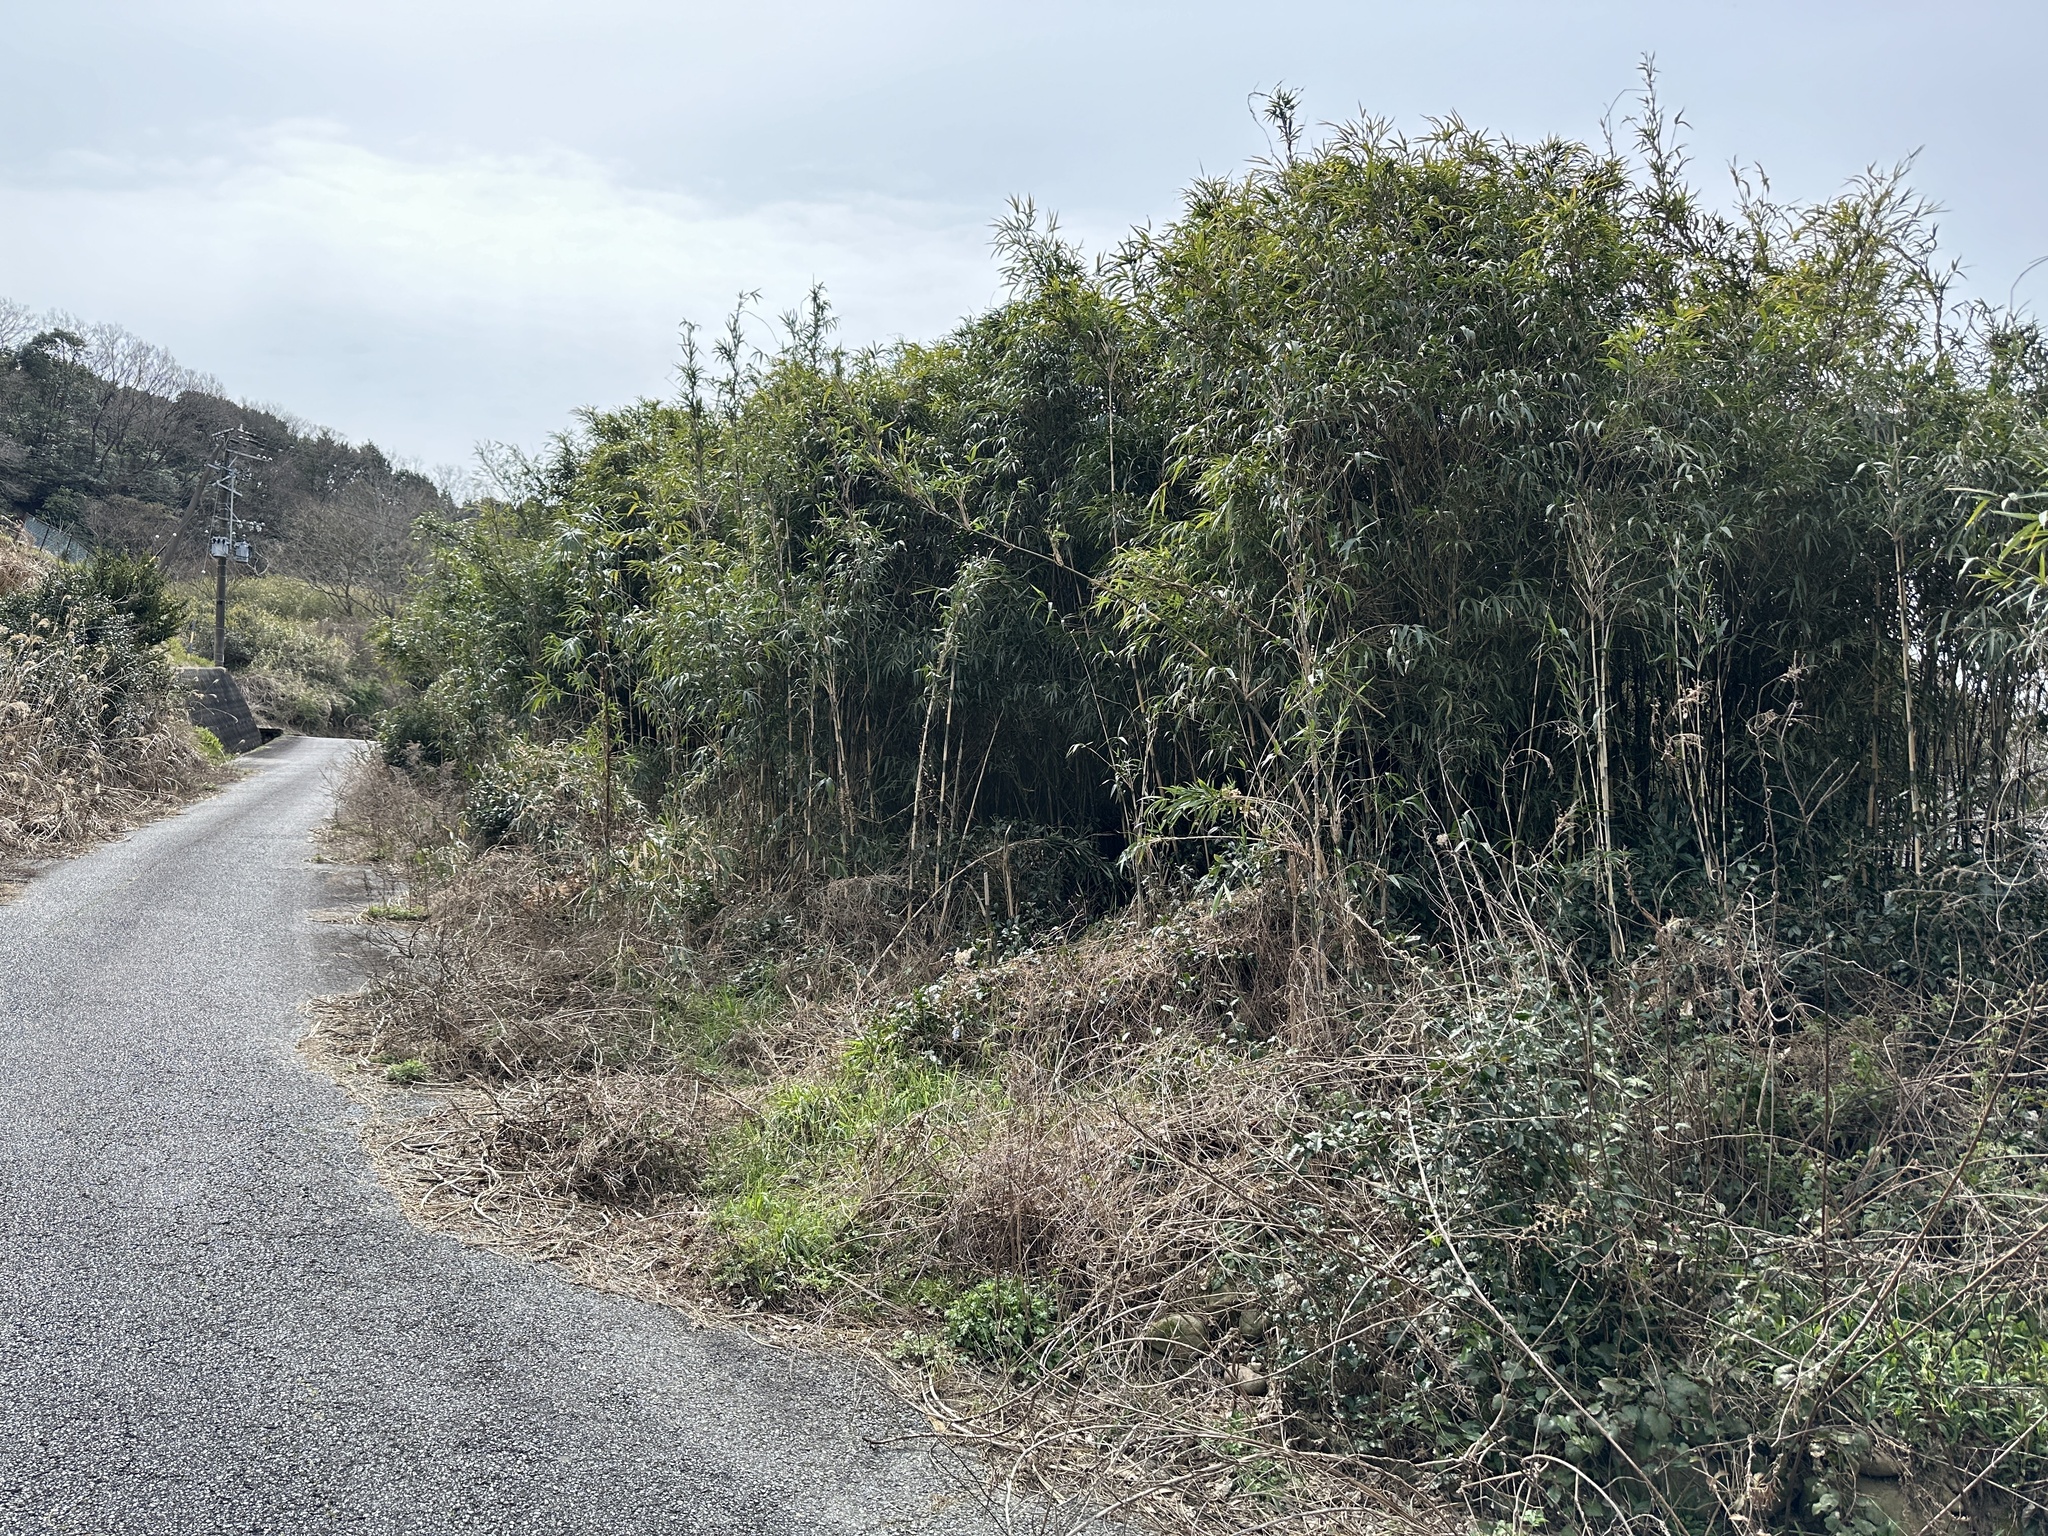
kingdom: Animalia
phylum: Chordata
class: Aves
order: Passeriformes
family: Cettiidae
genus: Horornis
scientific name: Horornis diphone
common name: Japanese bush warbler
